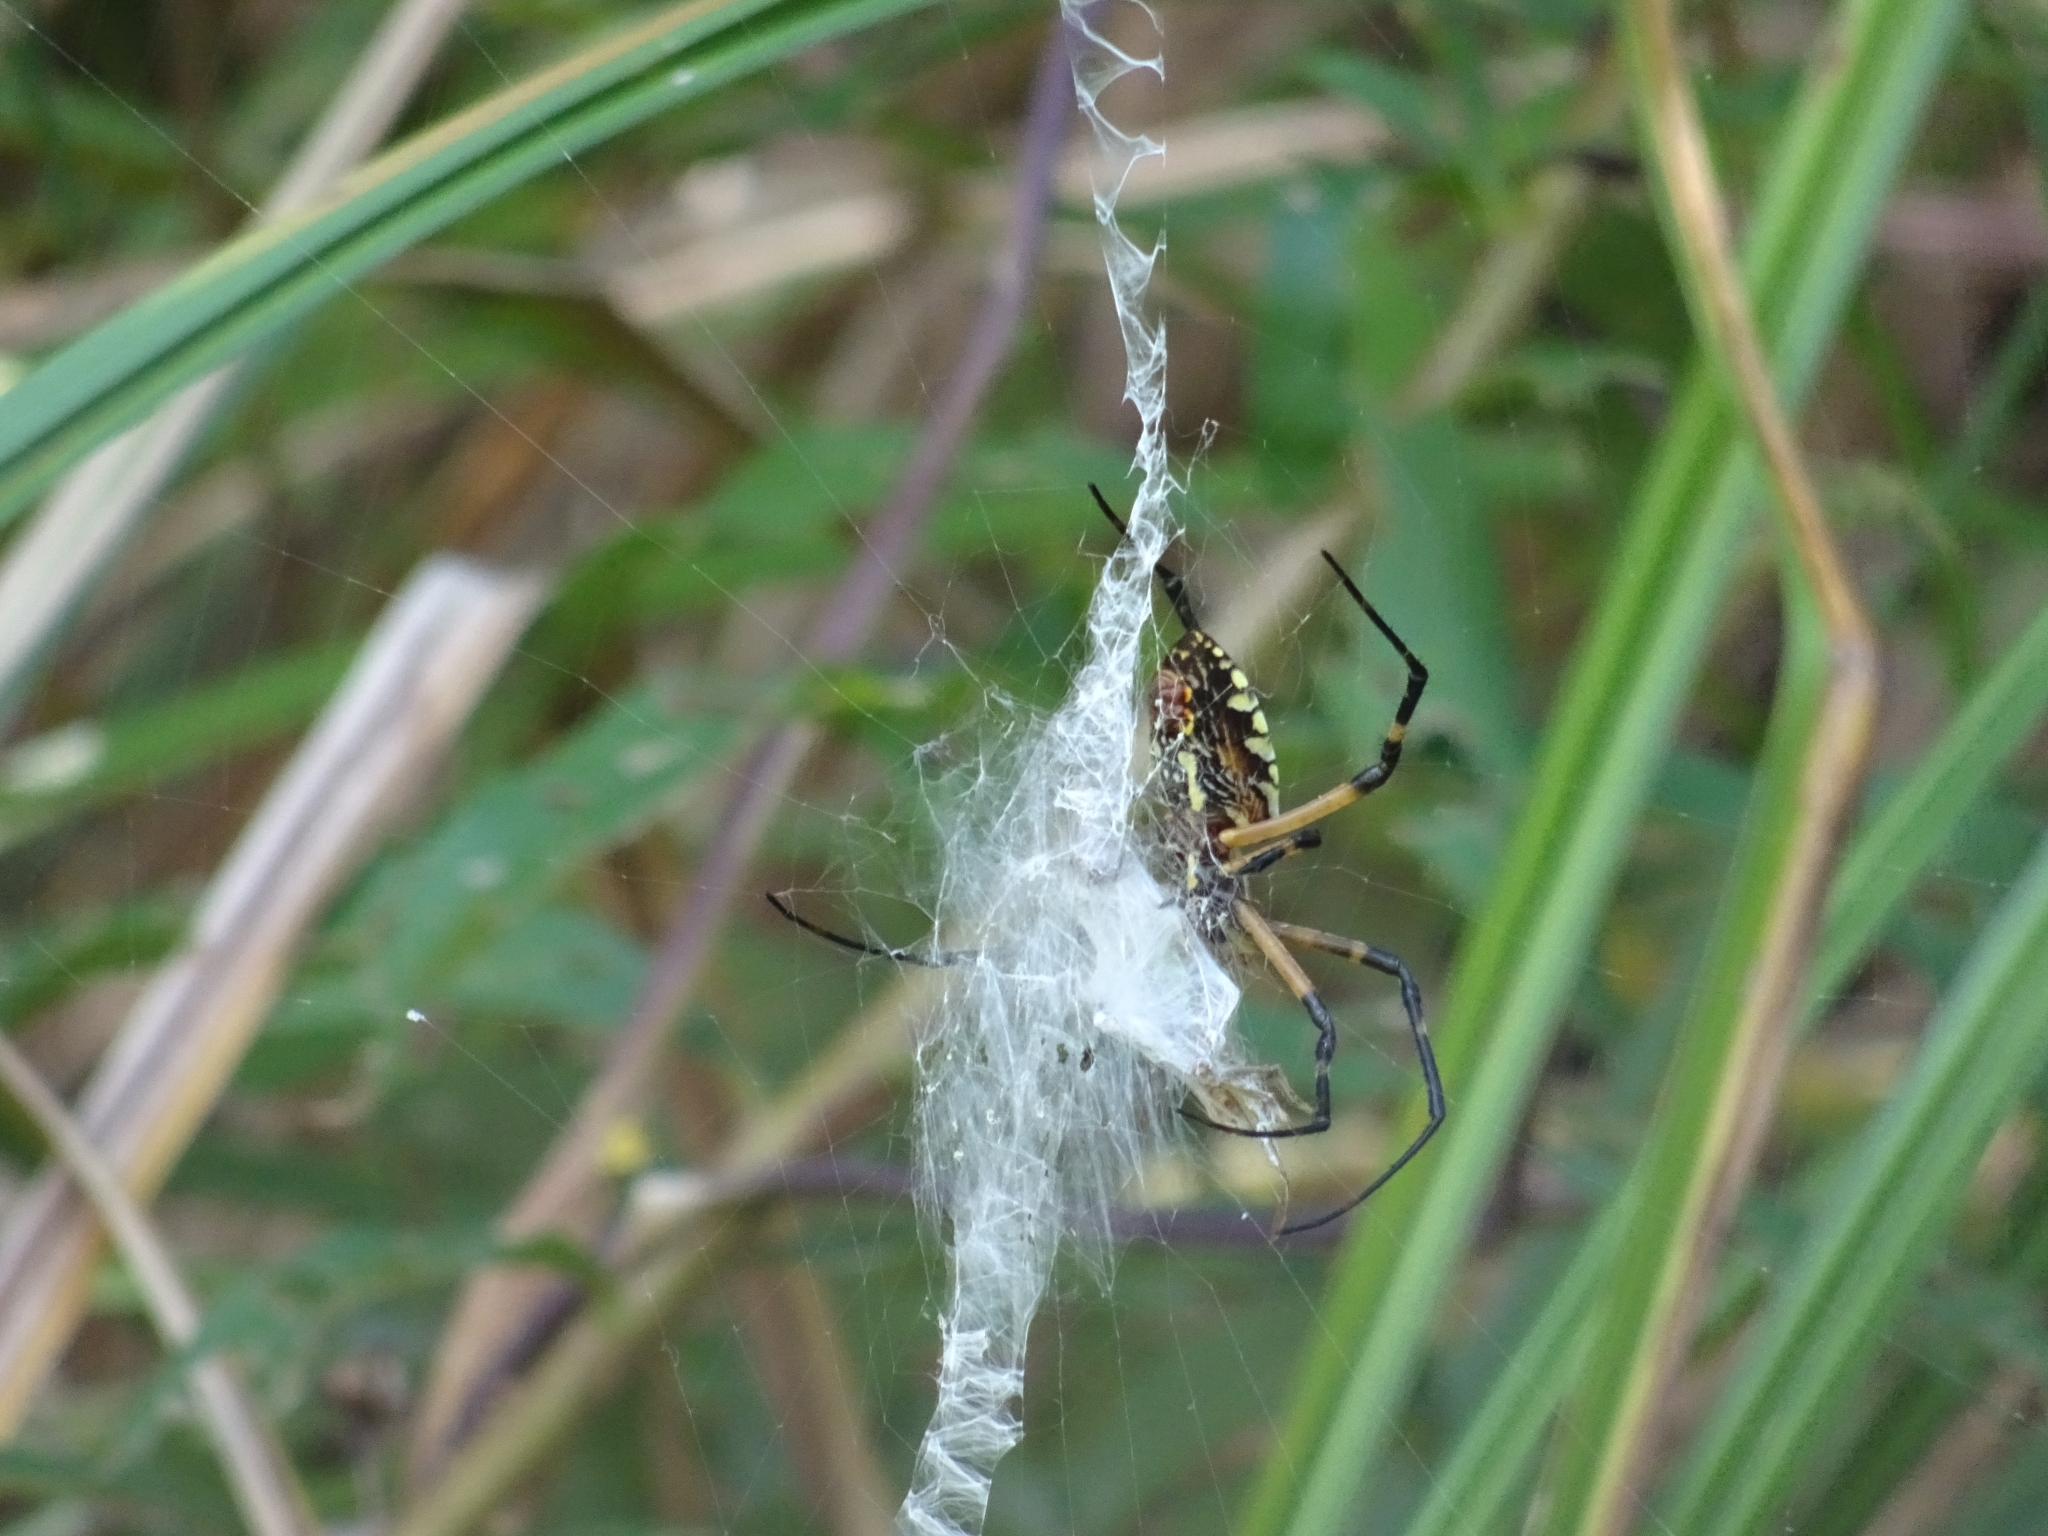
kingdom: Animalia
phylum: Arthropoda
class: Arachnida
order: Araneae
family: Araneidae
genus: Argiope
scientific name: Argiope aurantia
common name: Orb weavers
